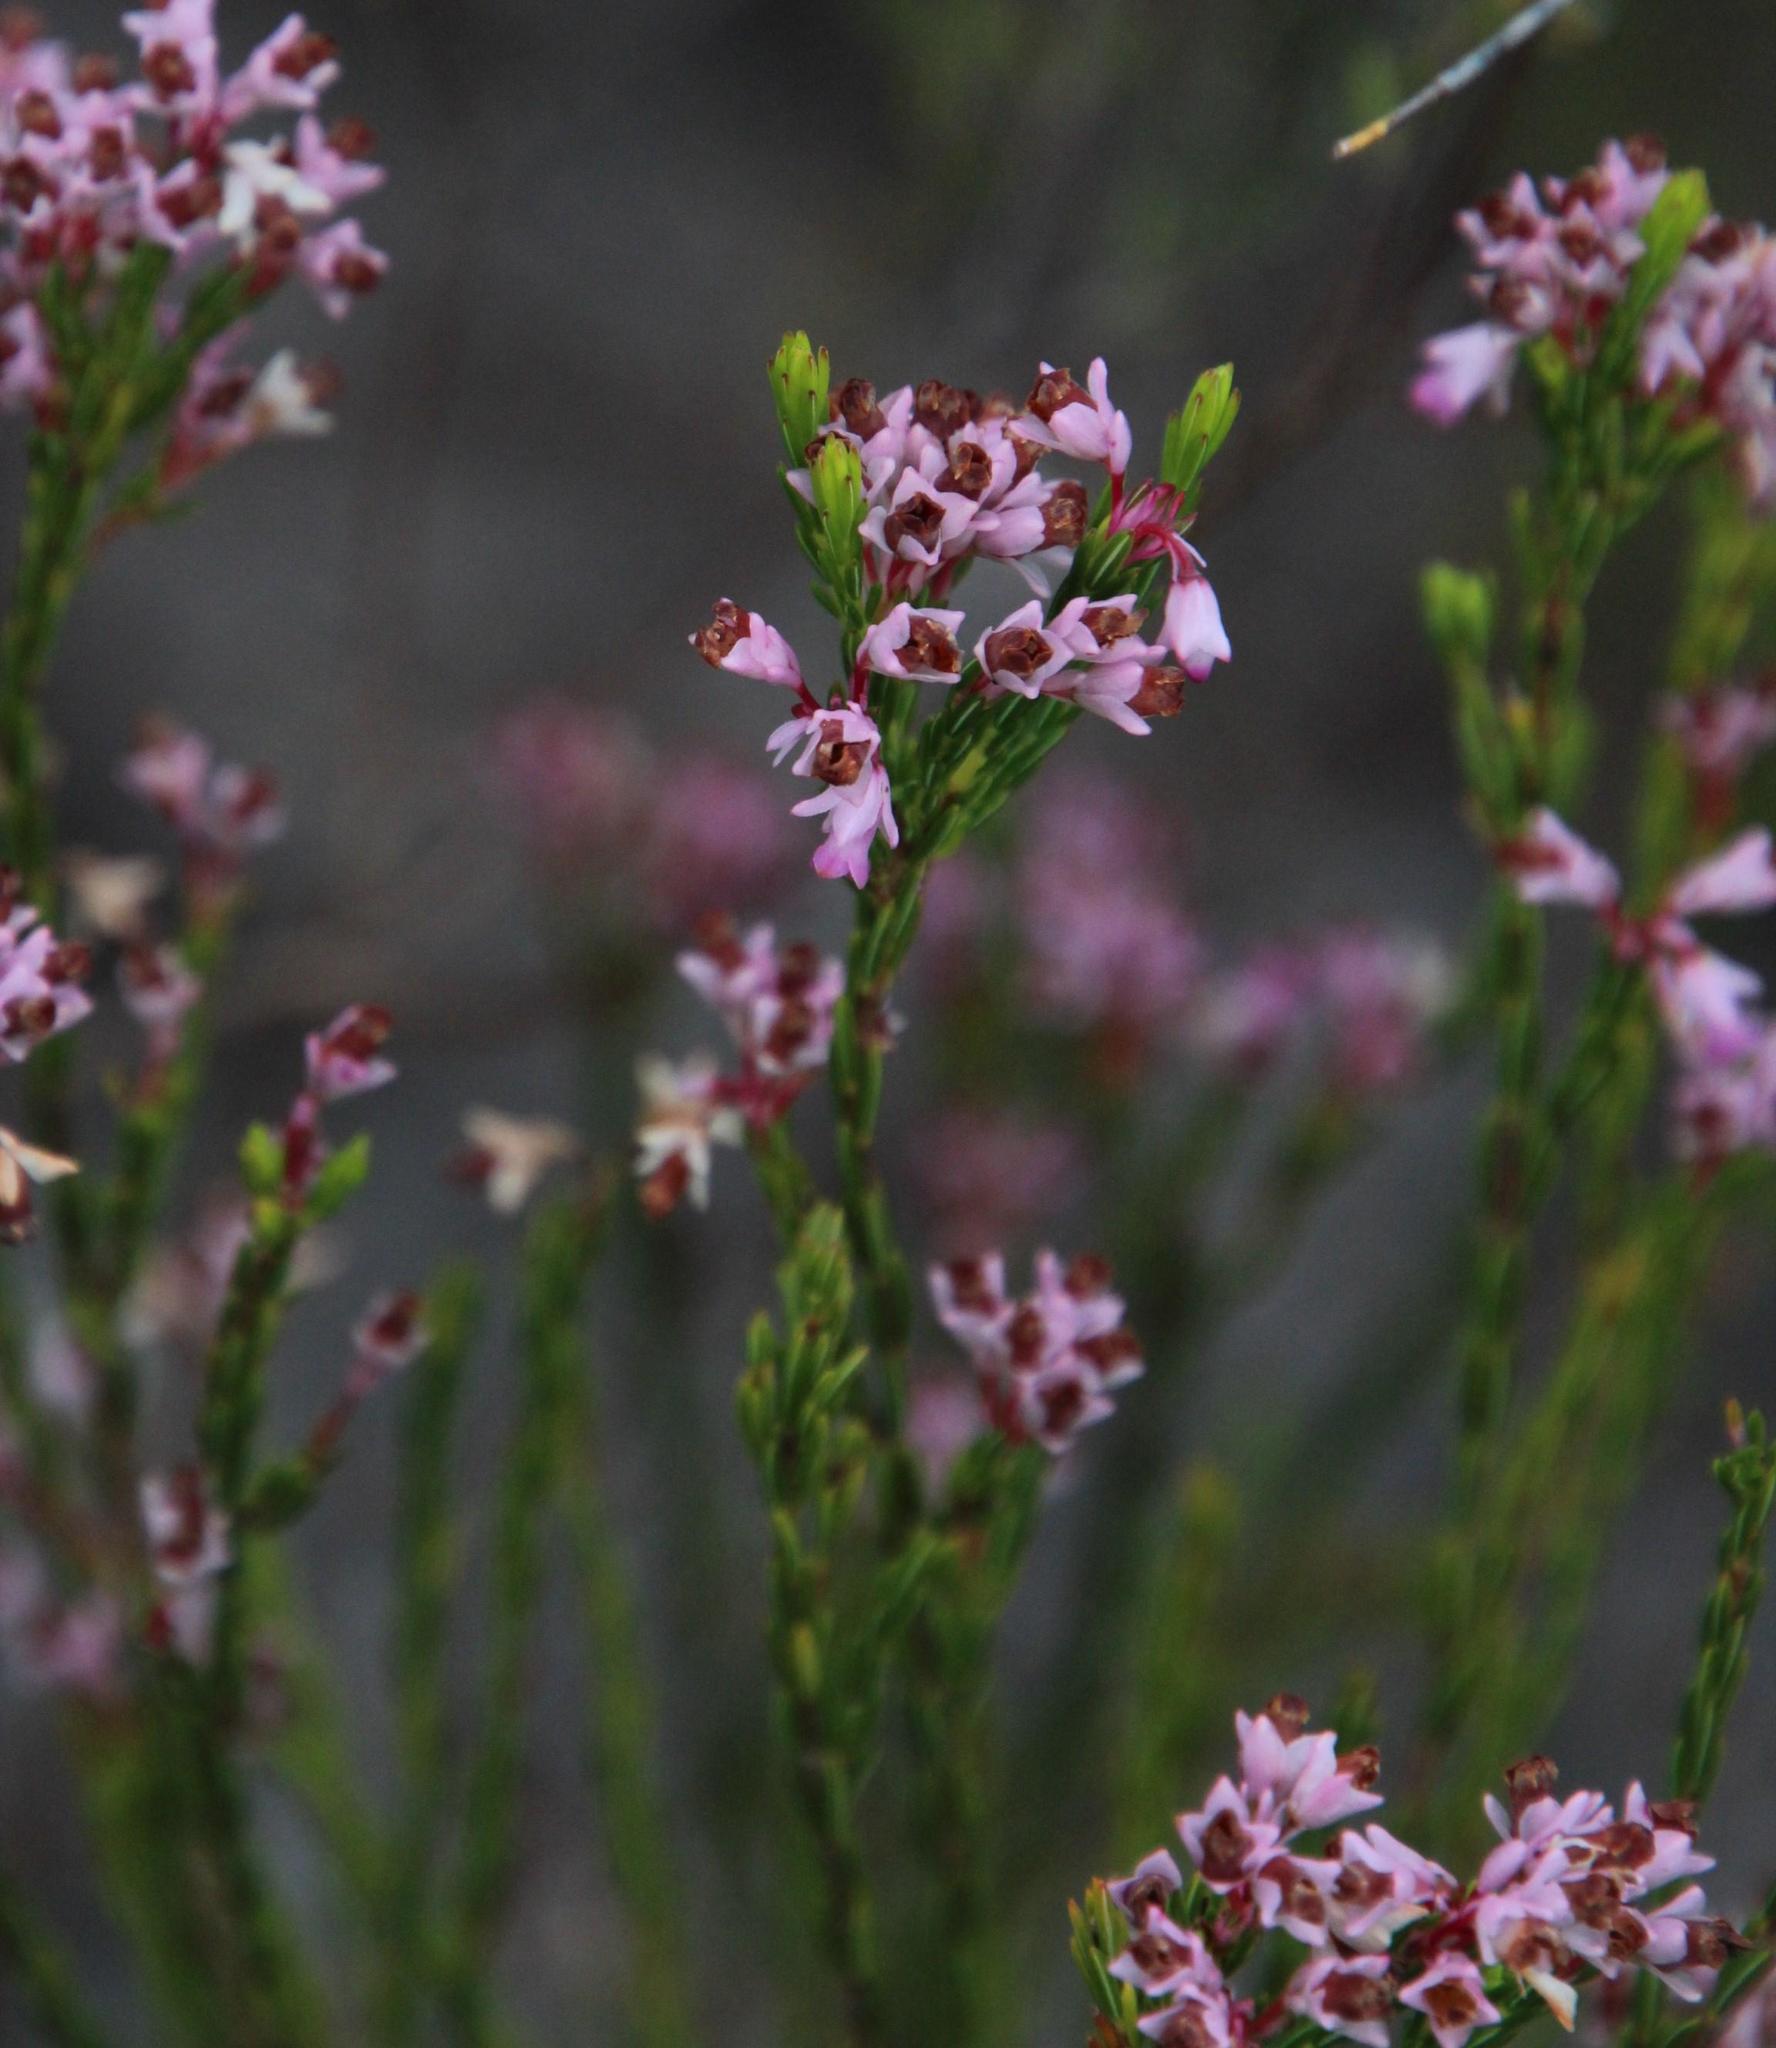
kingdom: Plantae
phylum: Tracheophyta
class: Magnoliopsida
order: Ericales
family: Ericaceae
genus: Erica
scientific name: Erica corifolia
